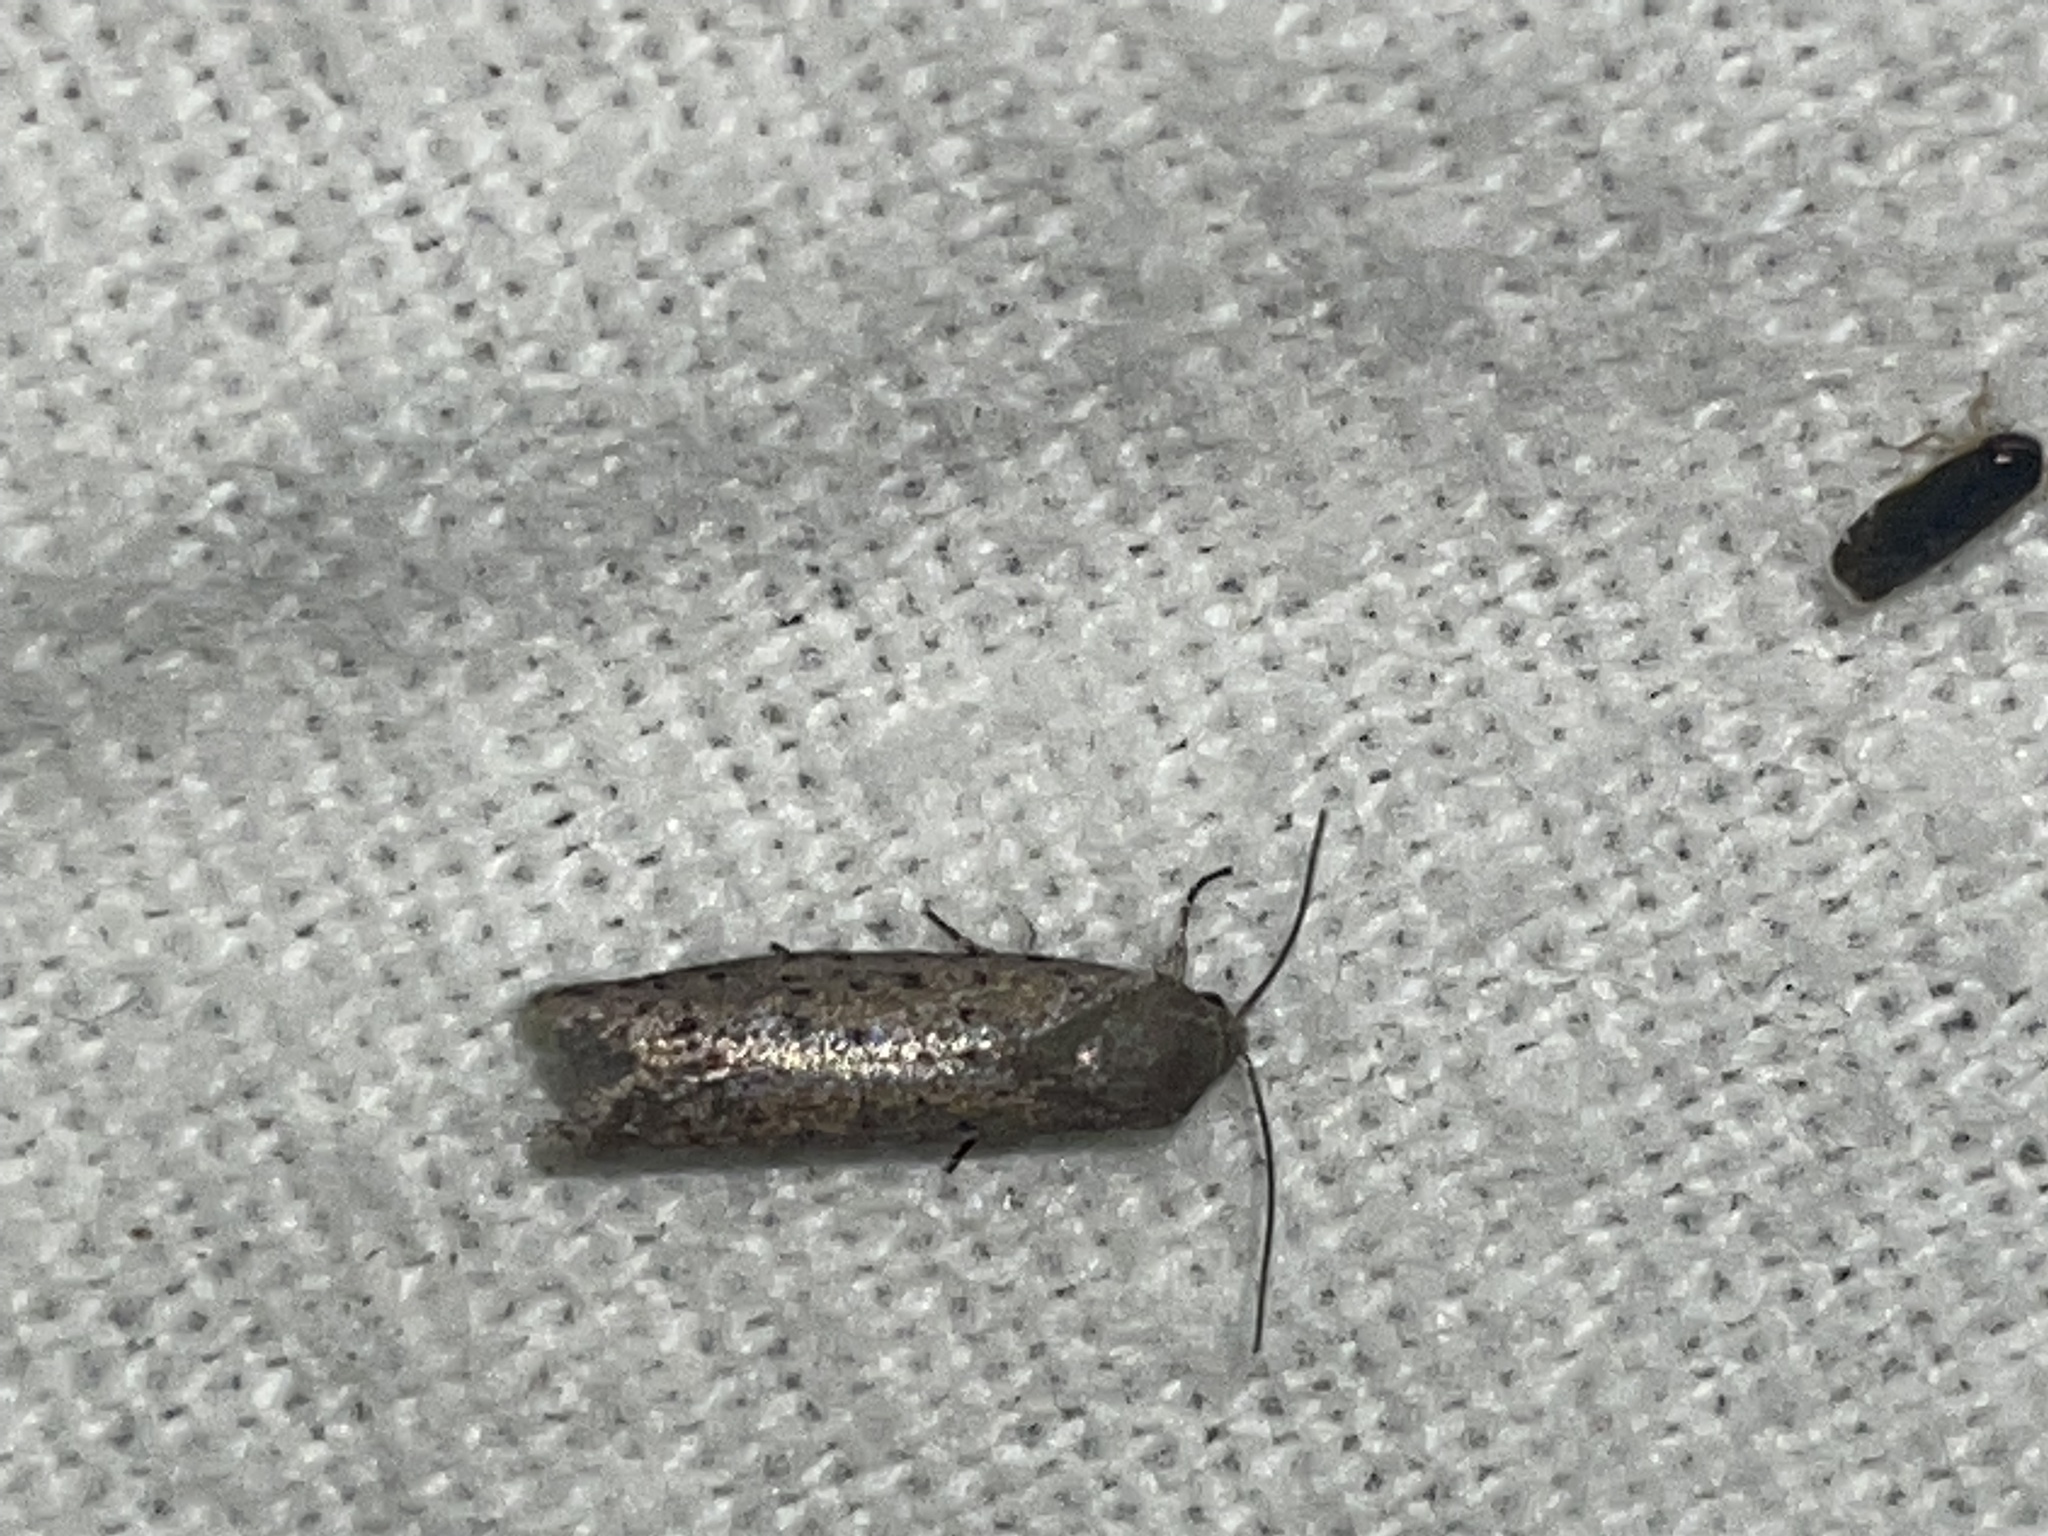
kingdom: Animalia
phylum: Arthropoda
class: Insecta
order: Lepidoptera
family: Galacticidae
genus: Homadaula
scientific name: Homadaula anisocentra
